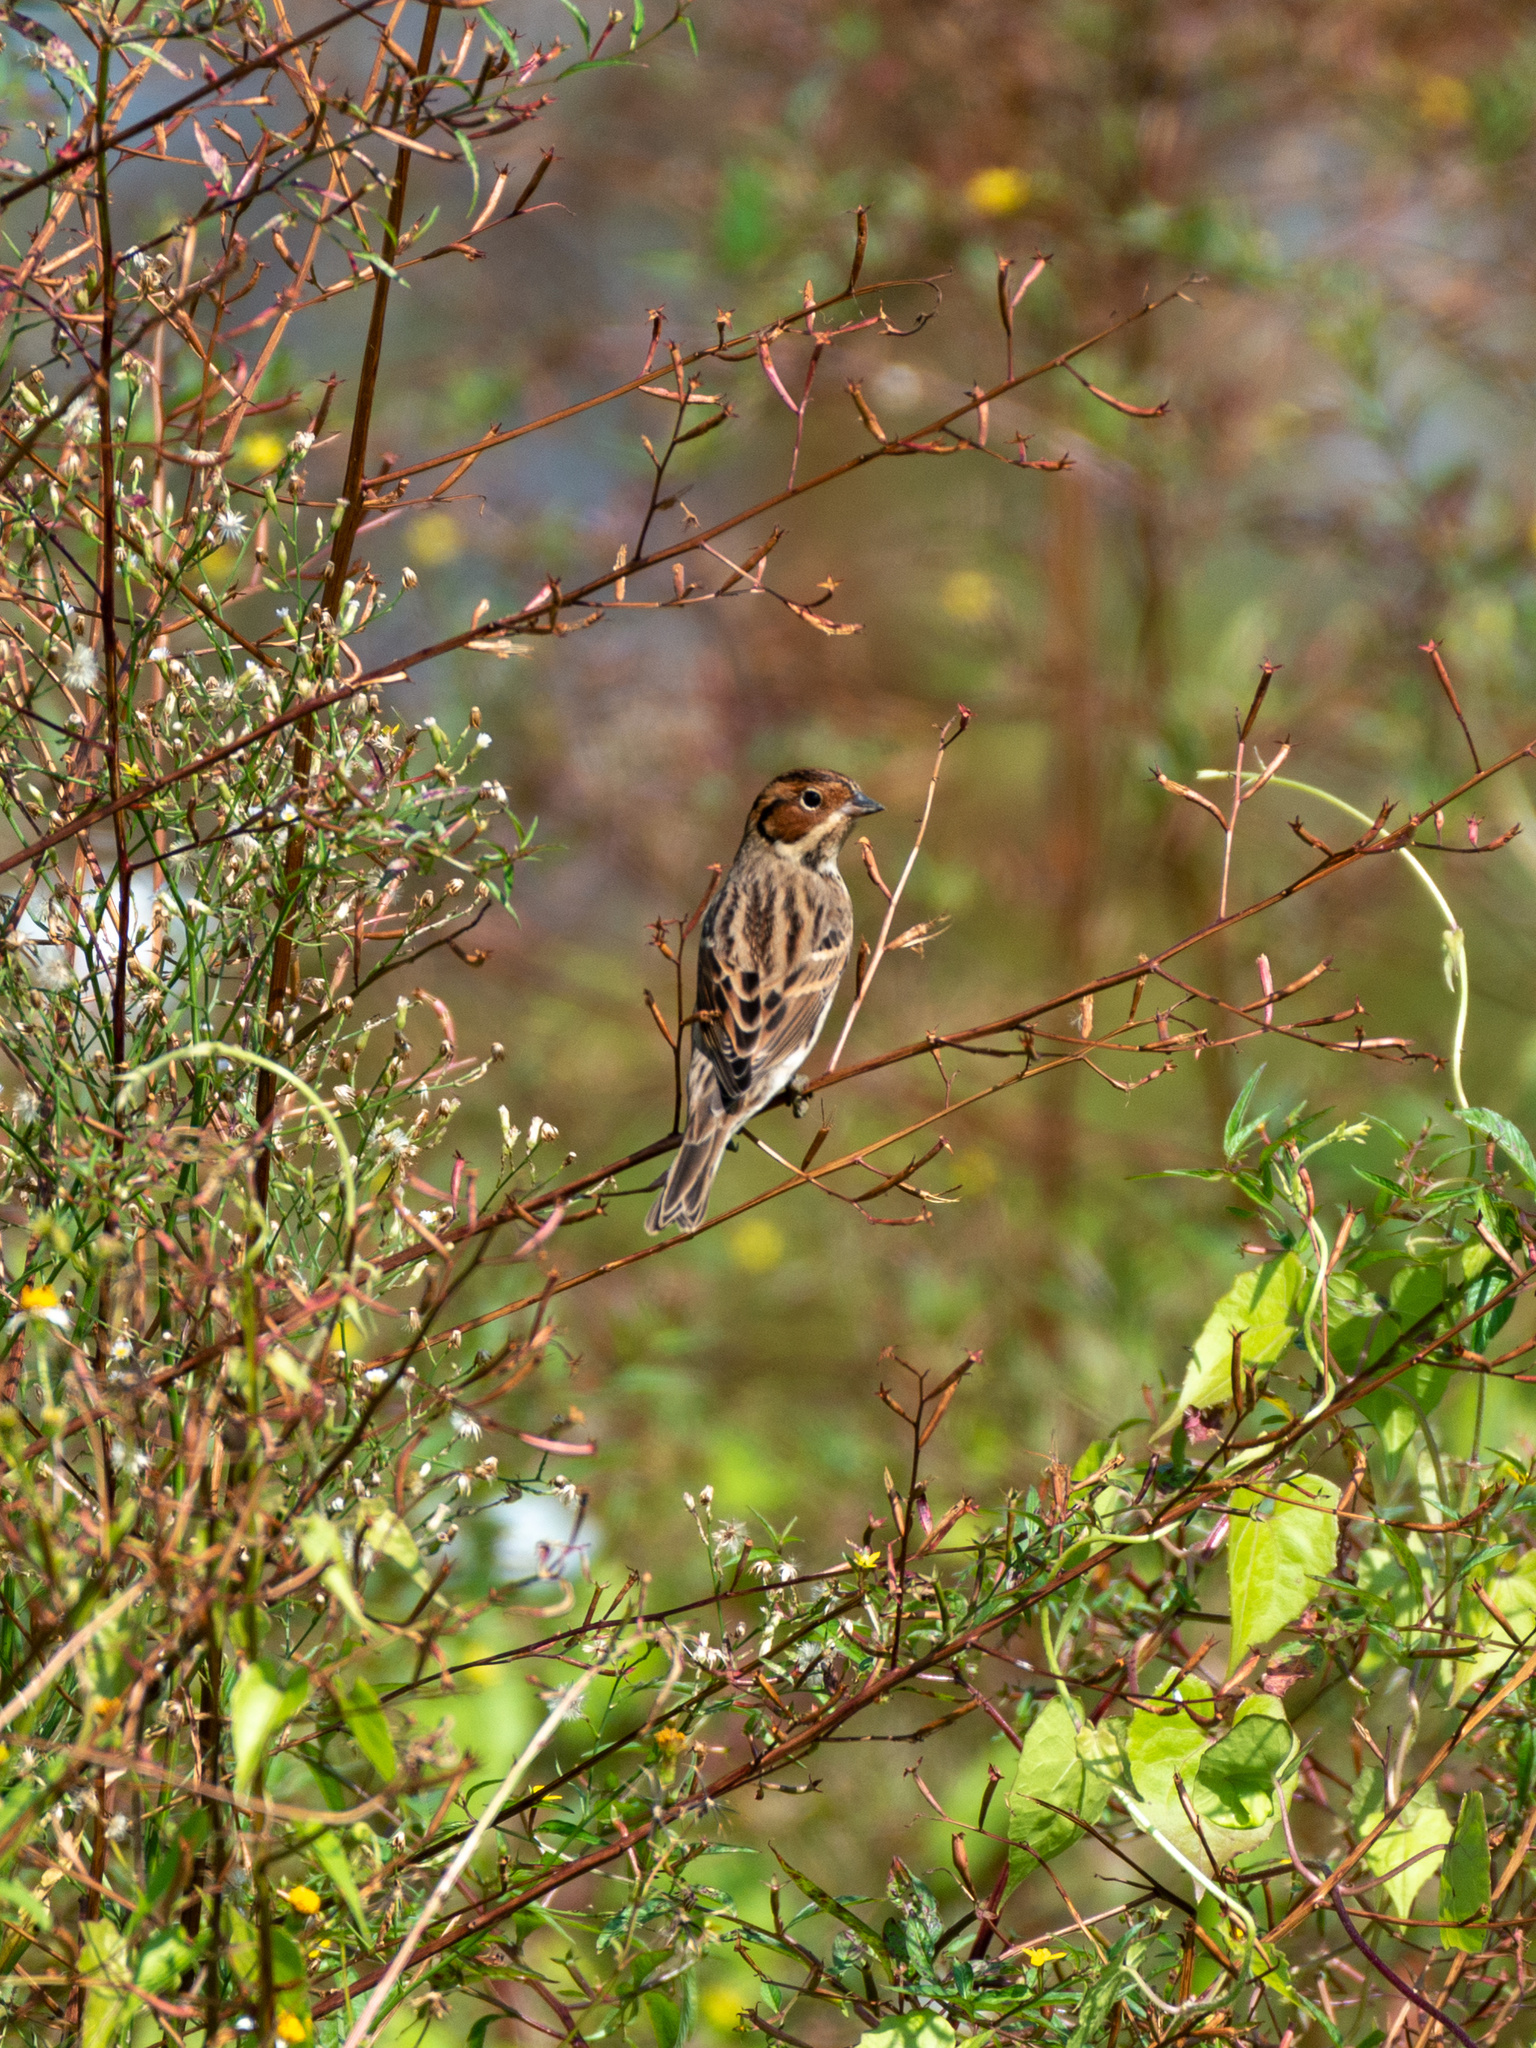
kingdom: Animalia
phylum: Chordata
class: Aves
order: Passeriformes
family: Emberizidae
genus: Emberiza
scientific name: Emberiza pusilla
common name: Little bunting
